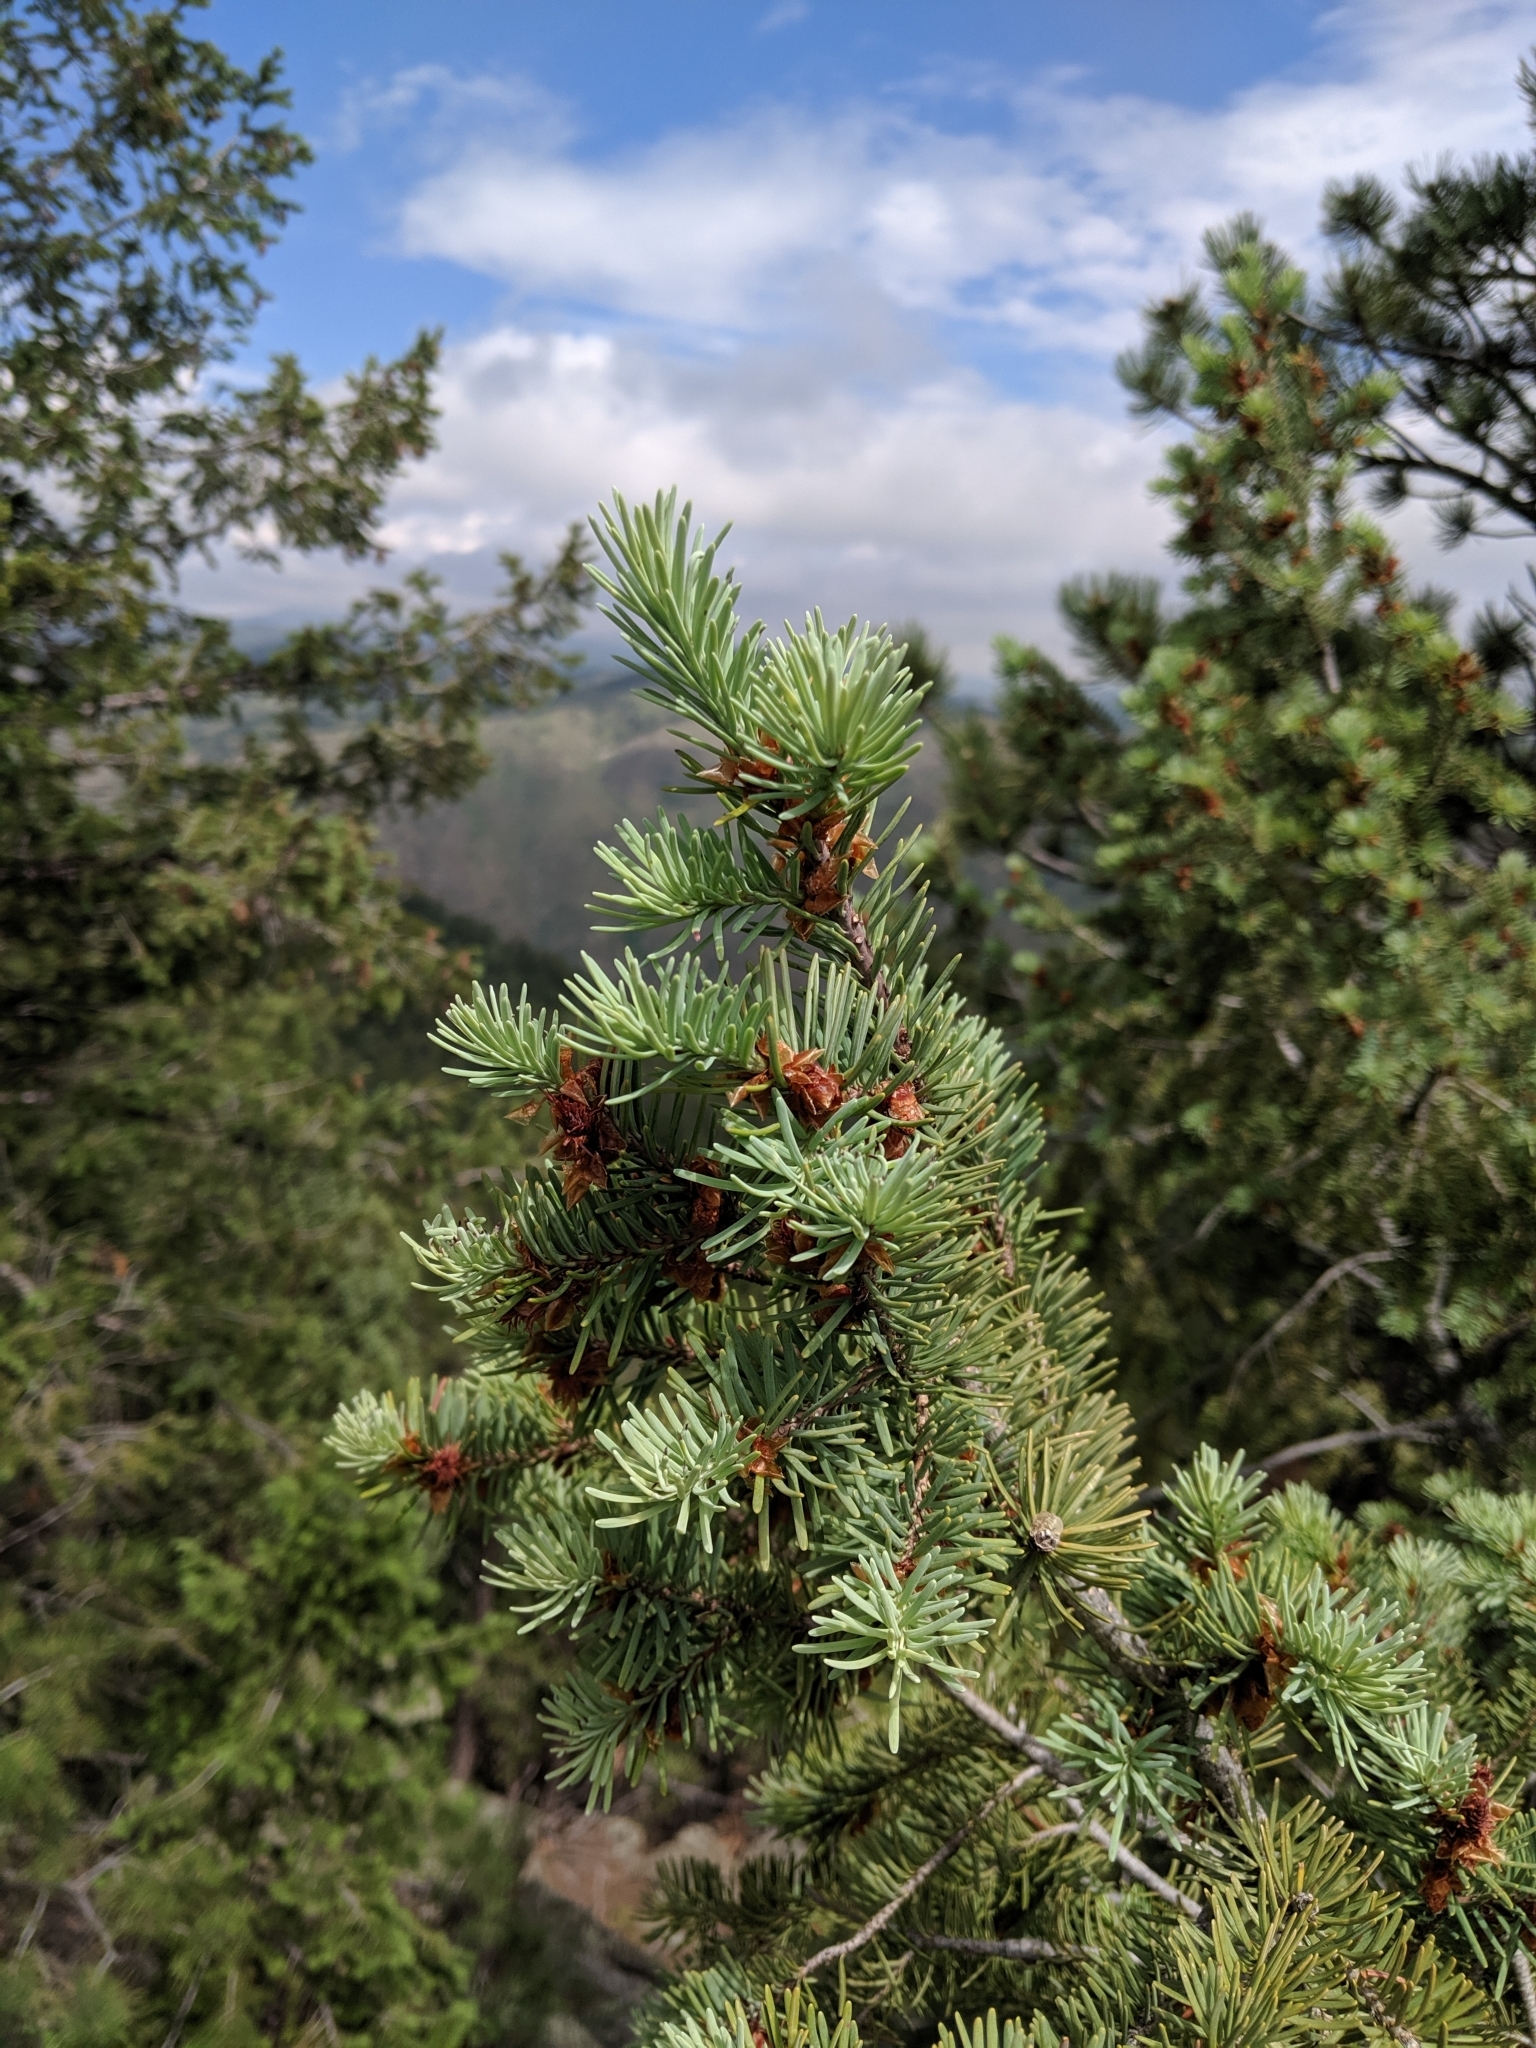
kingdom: Plantae
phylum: Tracheophyta
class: Pinopsida
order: Pinales
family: Pinaceae
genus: Pseudotsuga
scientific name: Pseudotsuga menziesii
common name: Douglas fir
